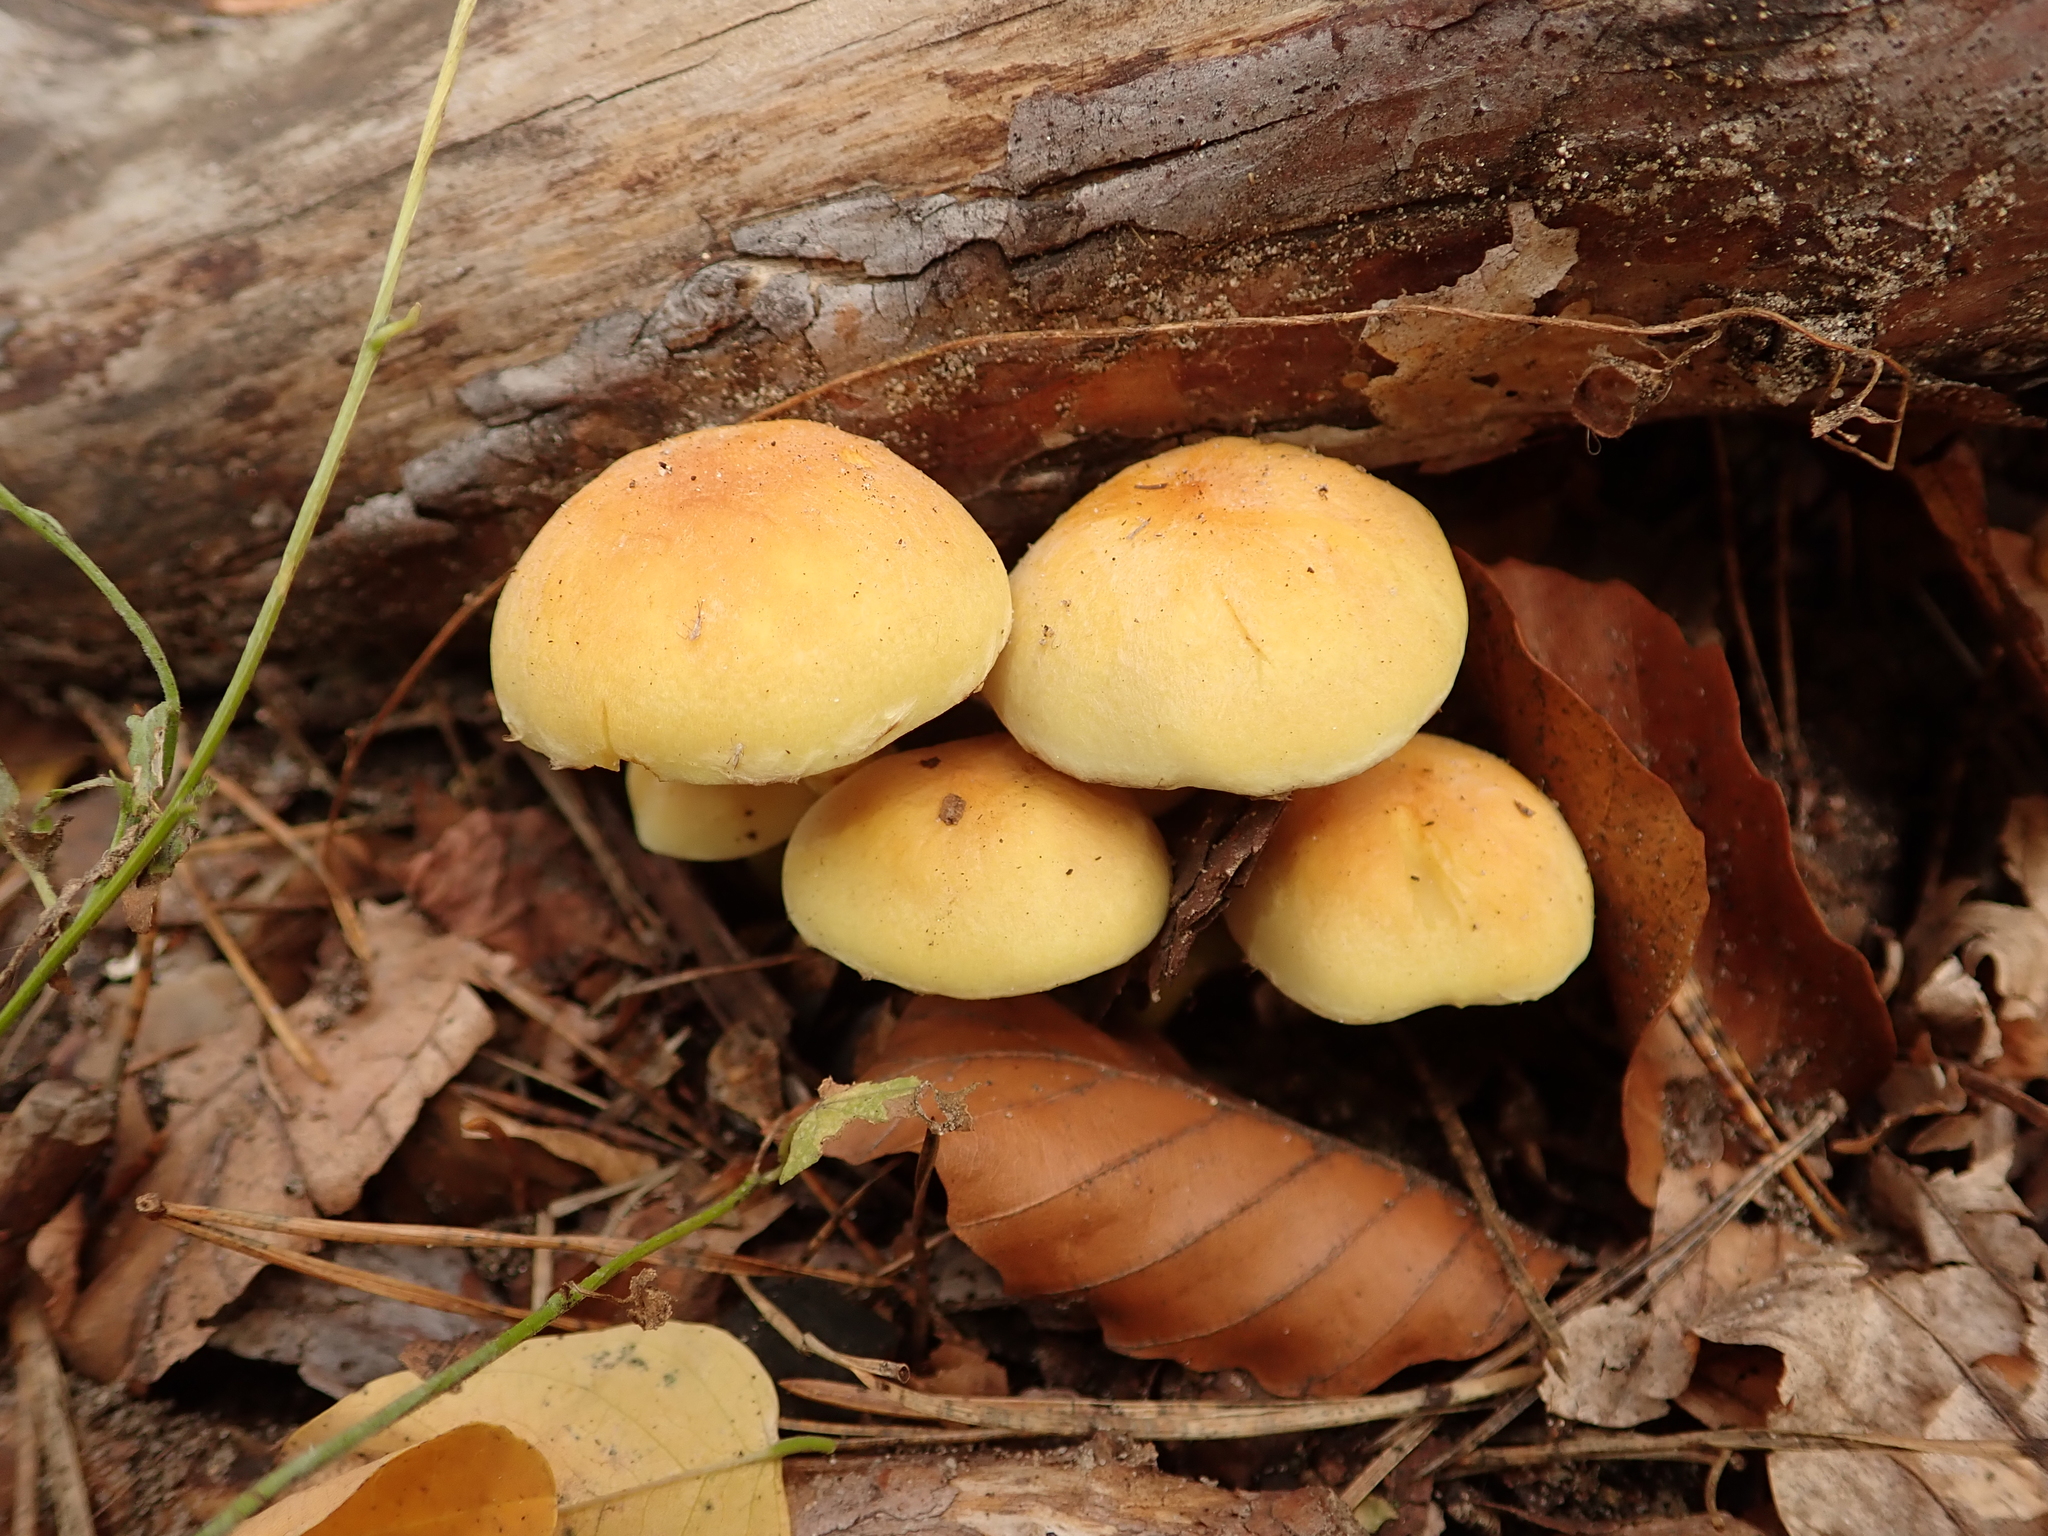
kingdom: Fungi
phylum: Basidiomycota
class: Agaricomycetes
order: Agaricales
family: Strophariaceae
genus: Hypholoma
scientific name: Hypholoma fasciculare
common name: Sulphur tuft
